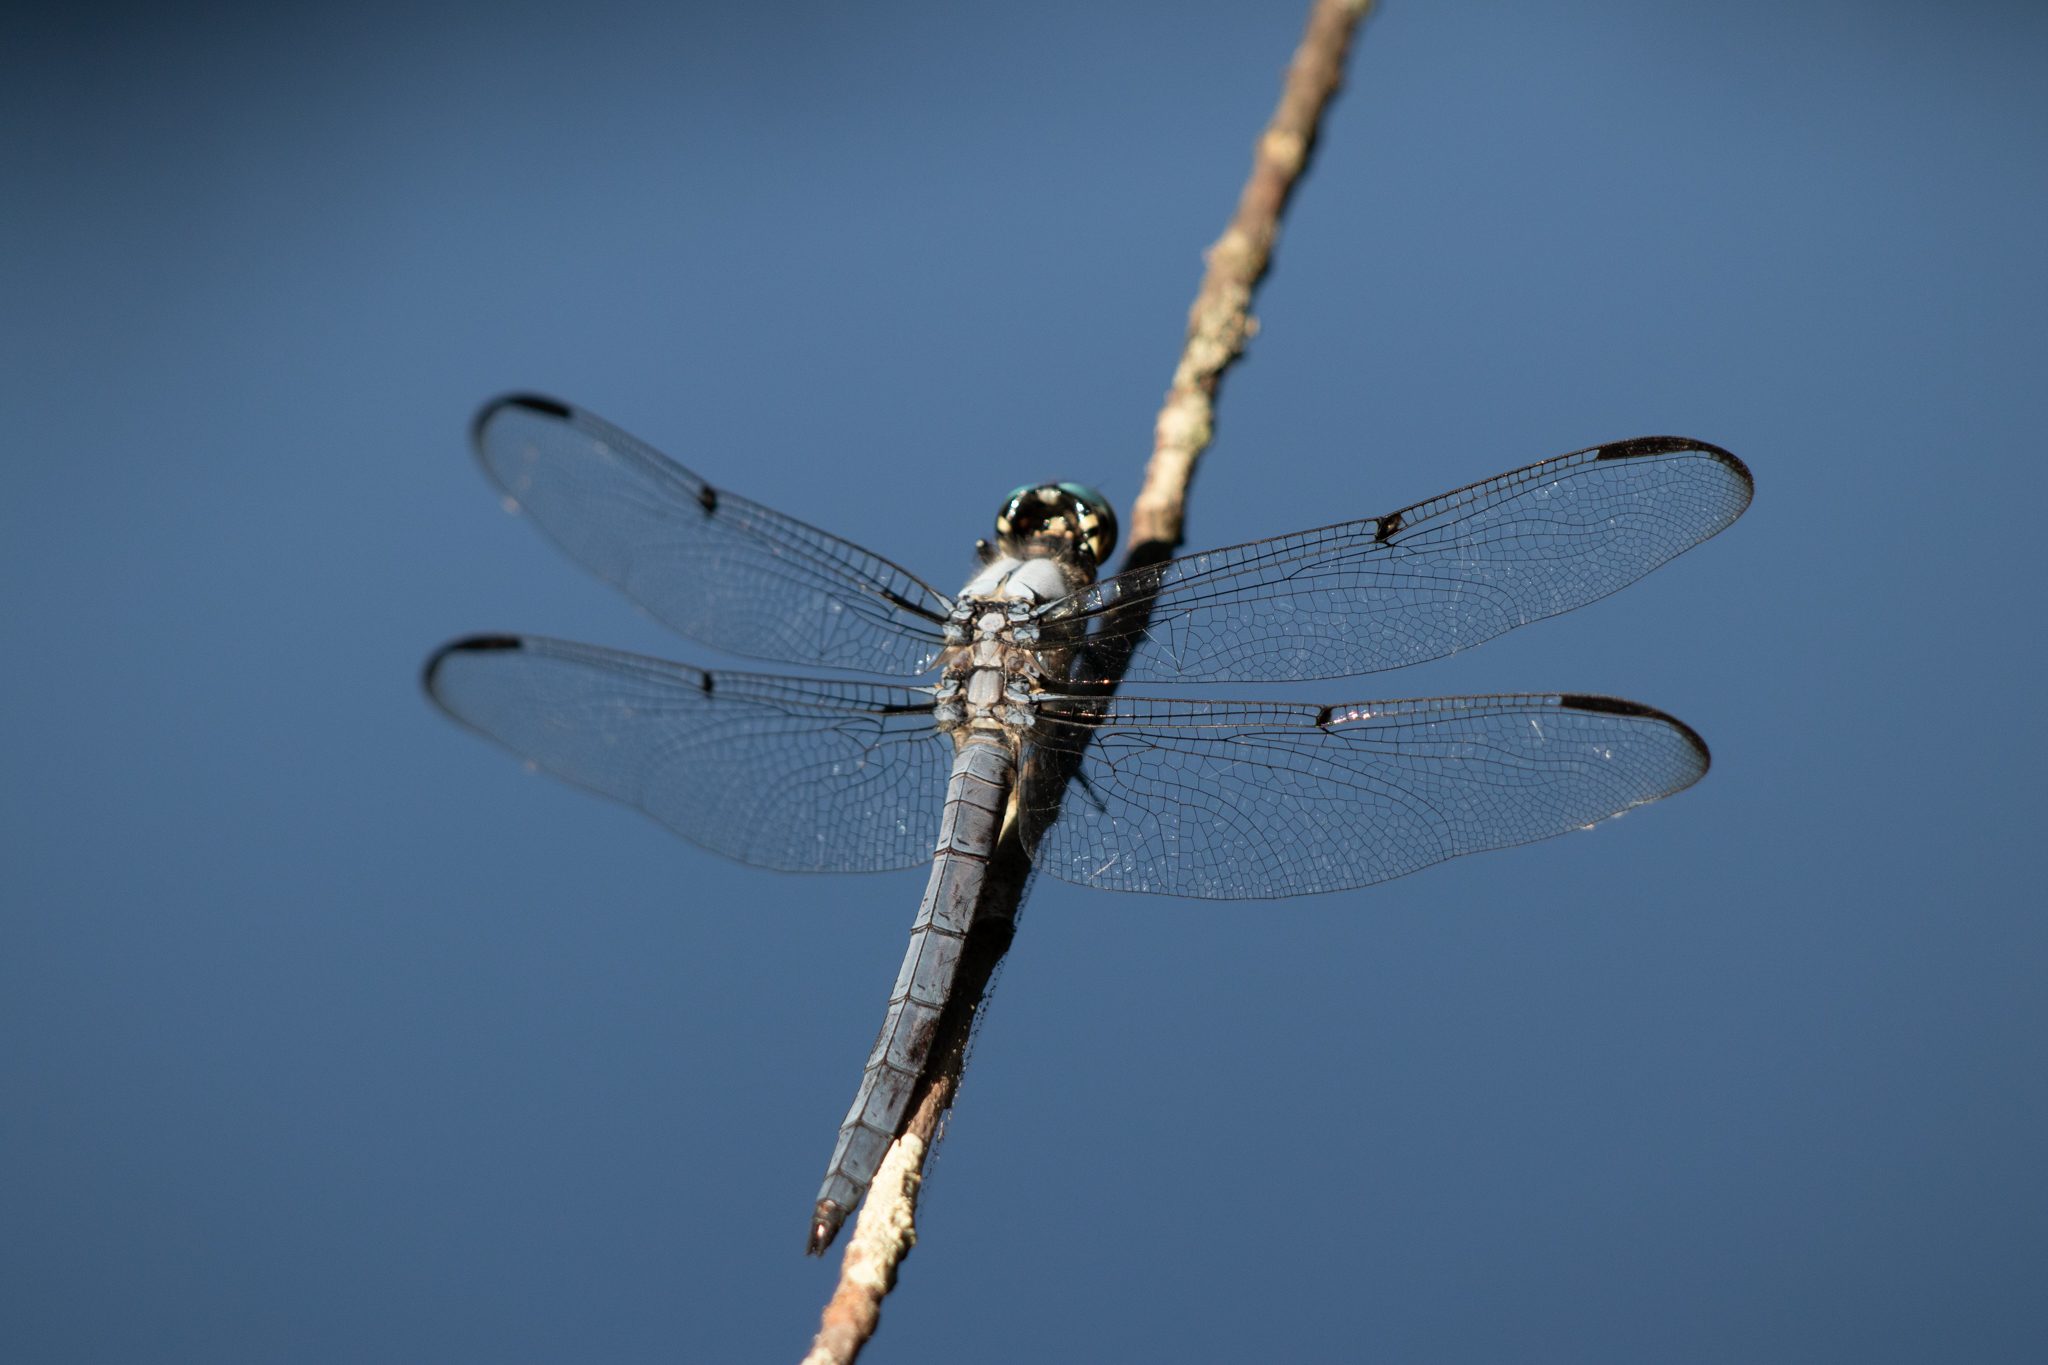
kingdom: Animalia
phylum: Arthropoda
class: Insecta
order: Odonata
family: Libellulidae
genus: Libellula
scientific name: Libellula vibrans
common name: Great blue skimmer
